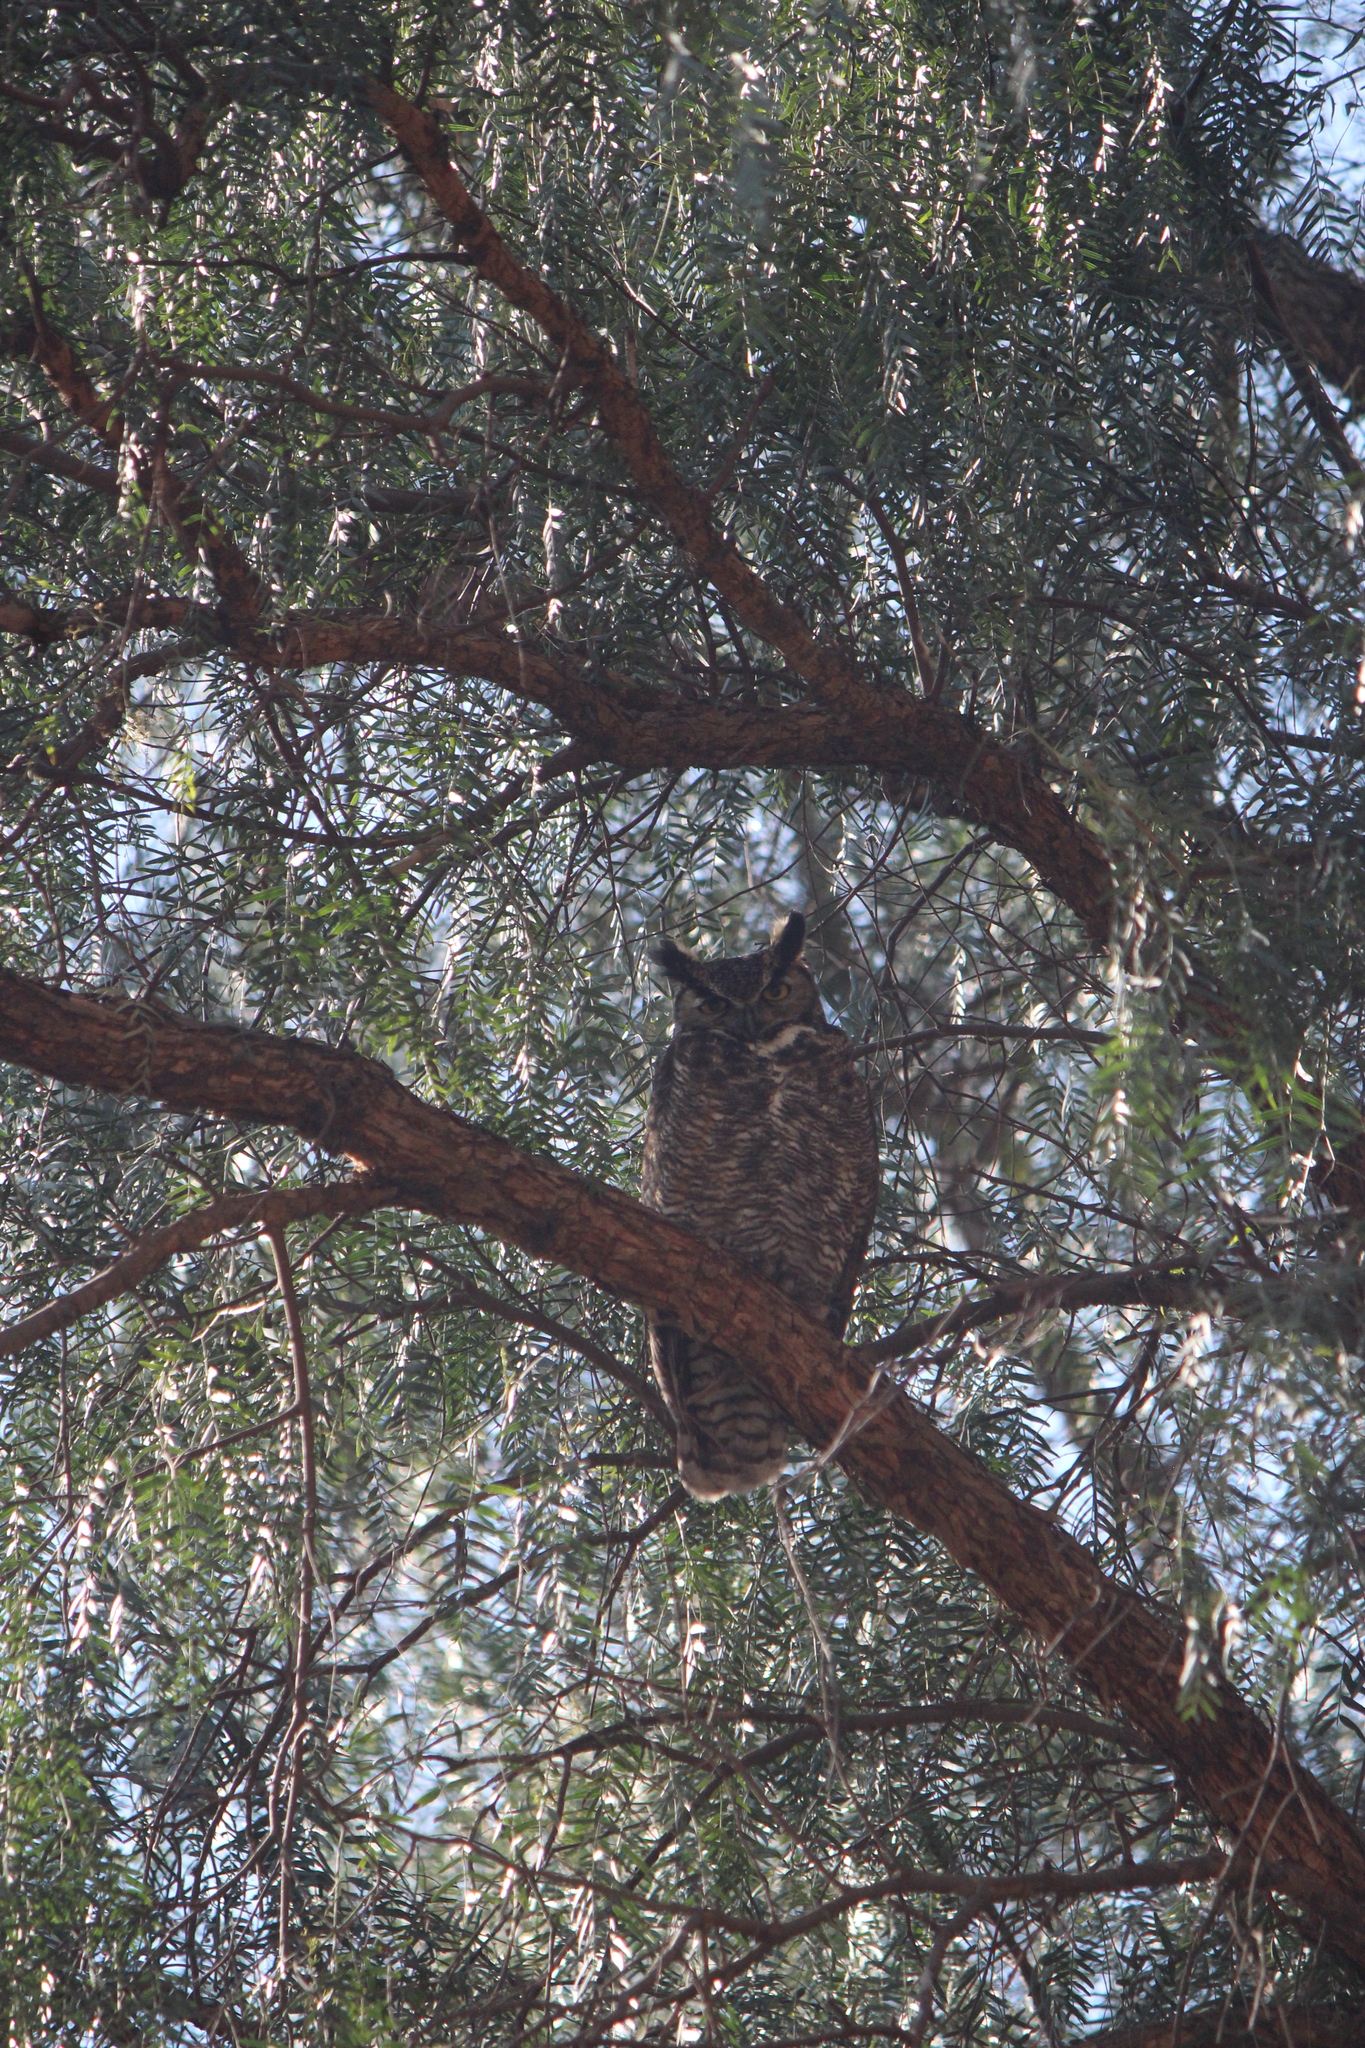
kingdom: Animalia
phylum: Chordata
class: Aves
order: Strigiformes
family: Strigidae
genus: Bubo
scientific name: Bubo virginianus
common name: Great horned owl
